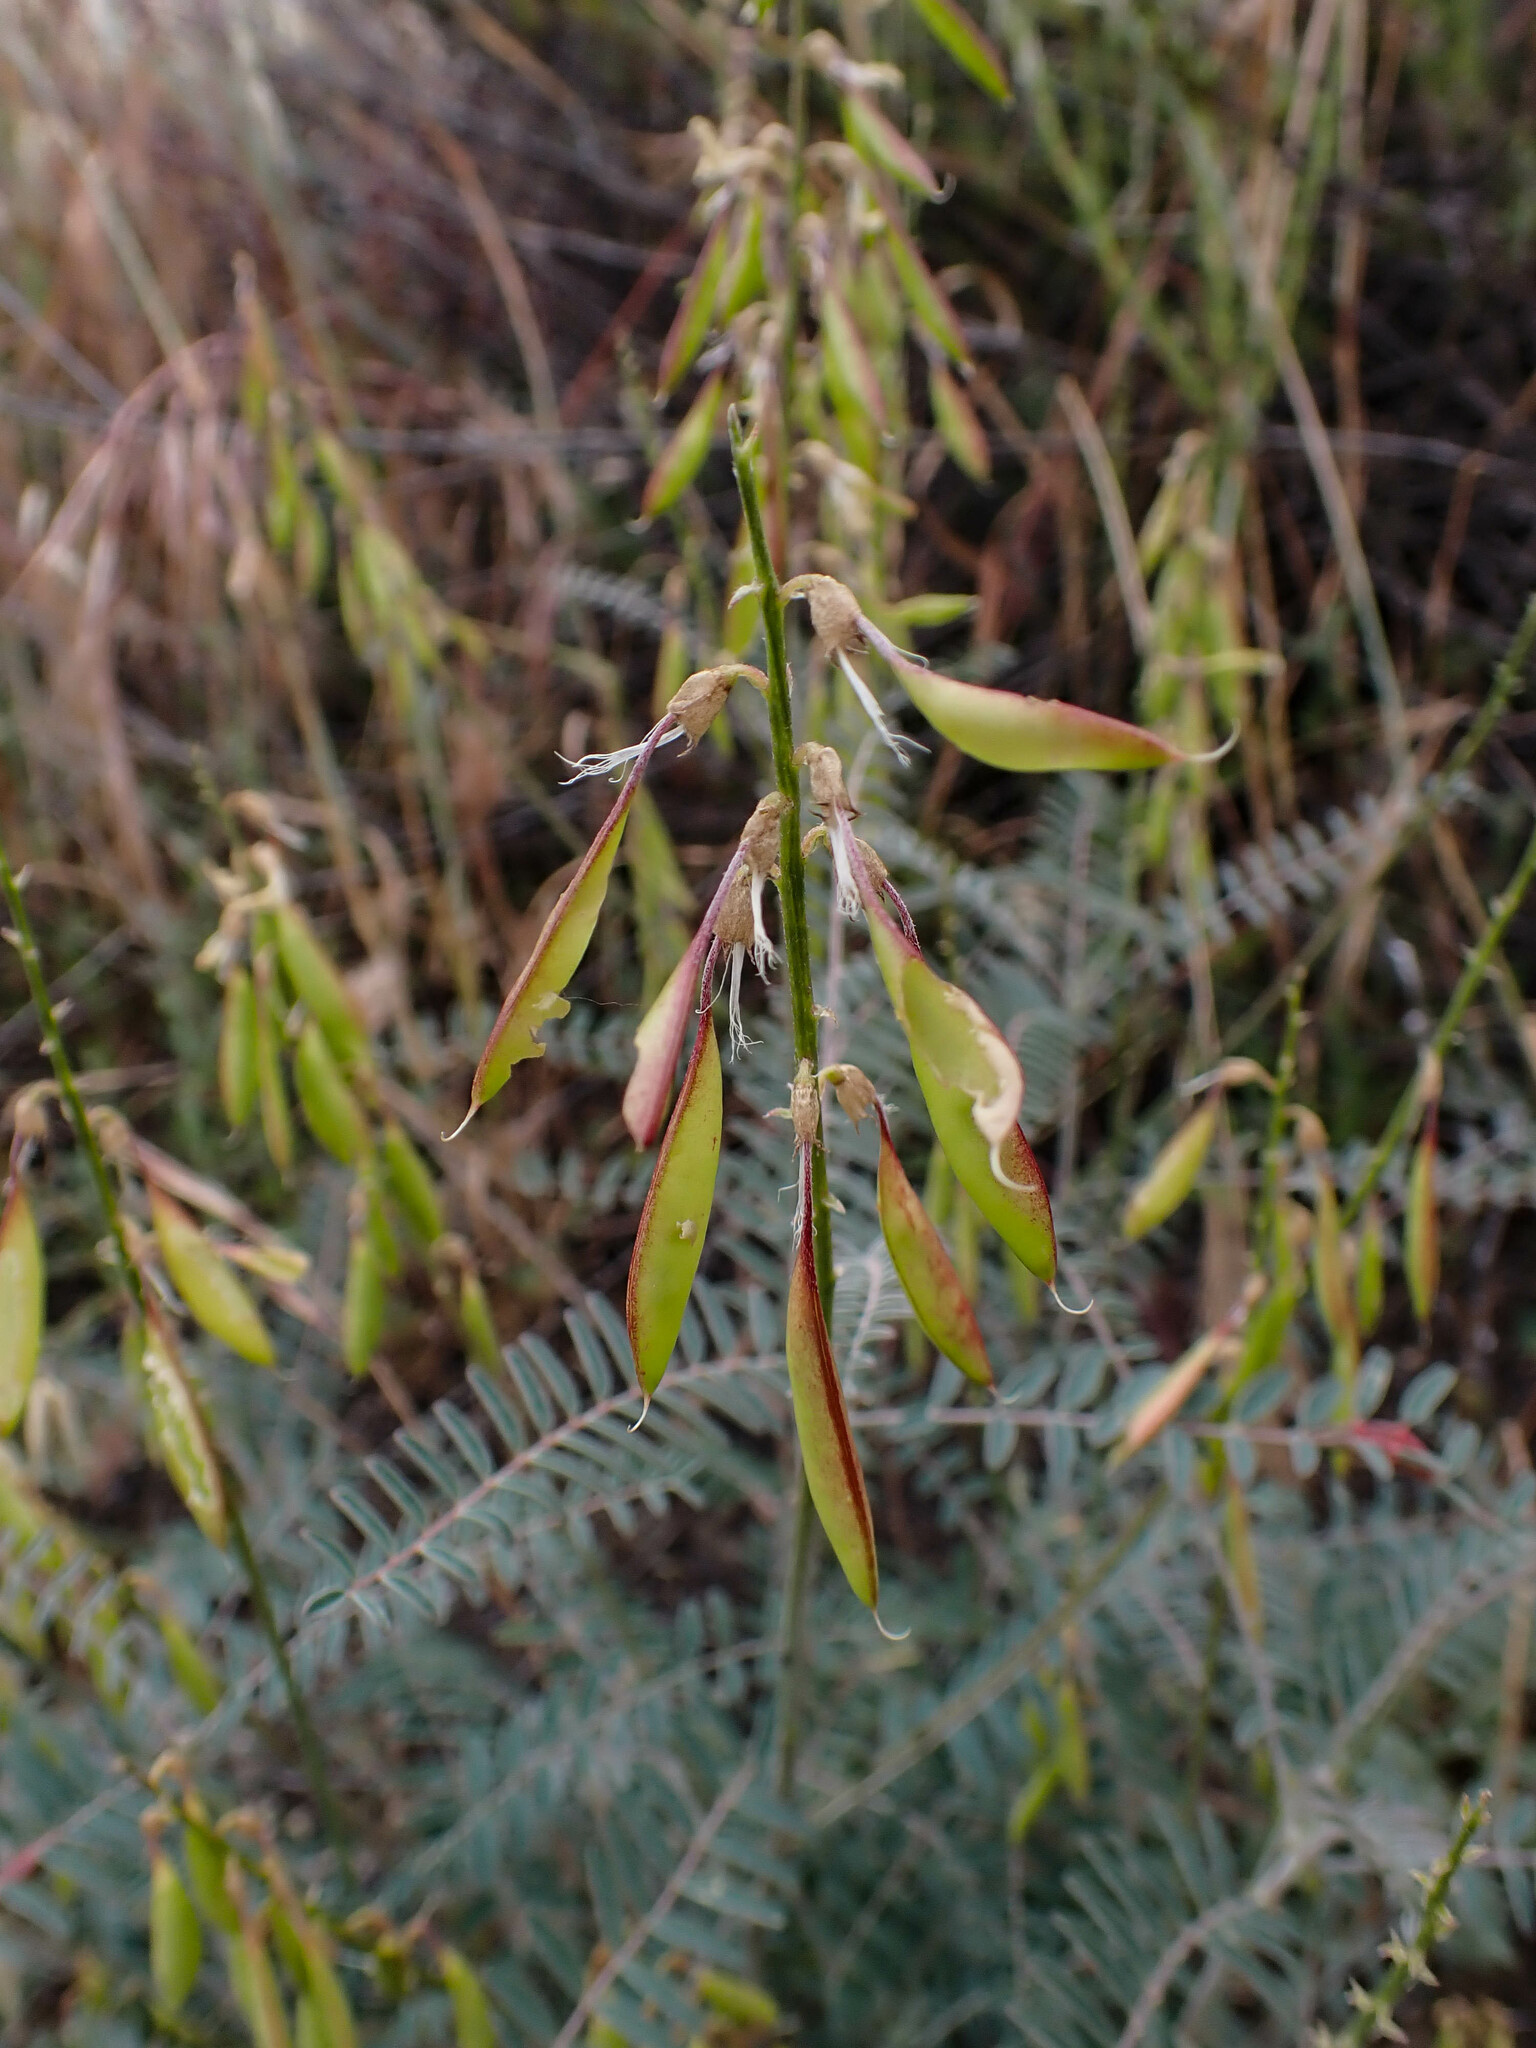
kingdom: Plantae
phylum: Tracheophyta
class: Magnoliopsida
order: Fabales
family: Fabaceae
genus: Astragalus
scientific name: Astragalus trichopodus
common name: Santa barbara milk-vetch
